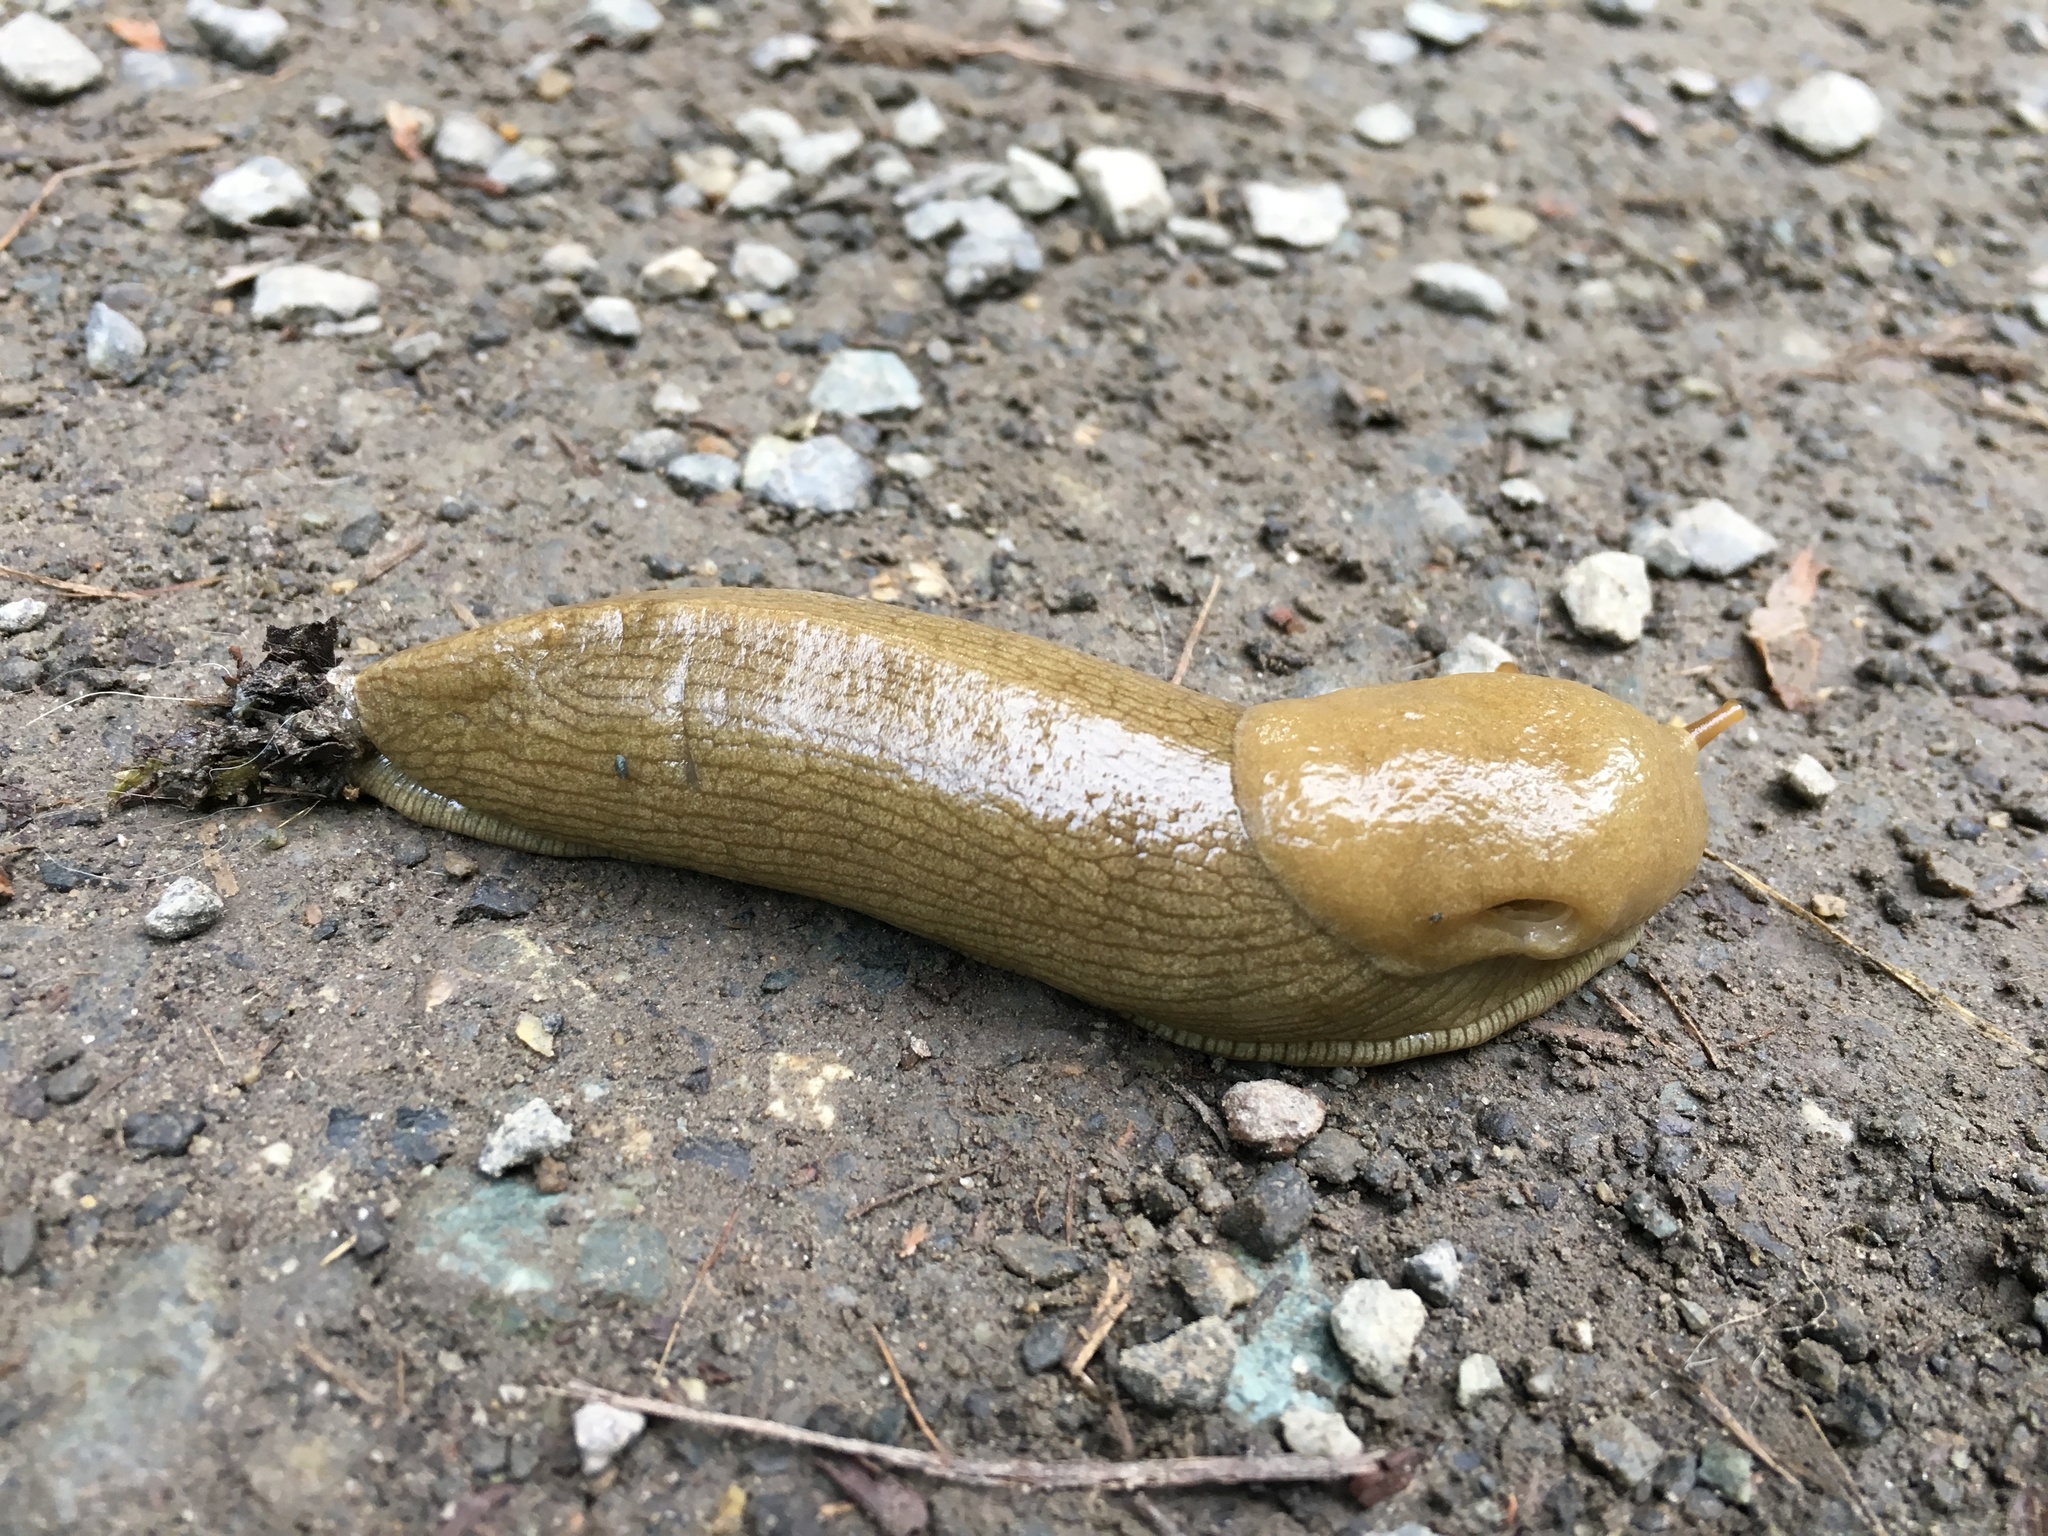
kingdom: Animalia
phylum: Mollusca
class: Gastropoda
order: Stylommatophora
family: Ariolimacidae
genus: Ariolimax
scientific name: Ariolimax columbianus
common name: Pacific banana slug
